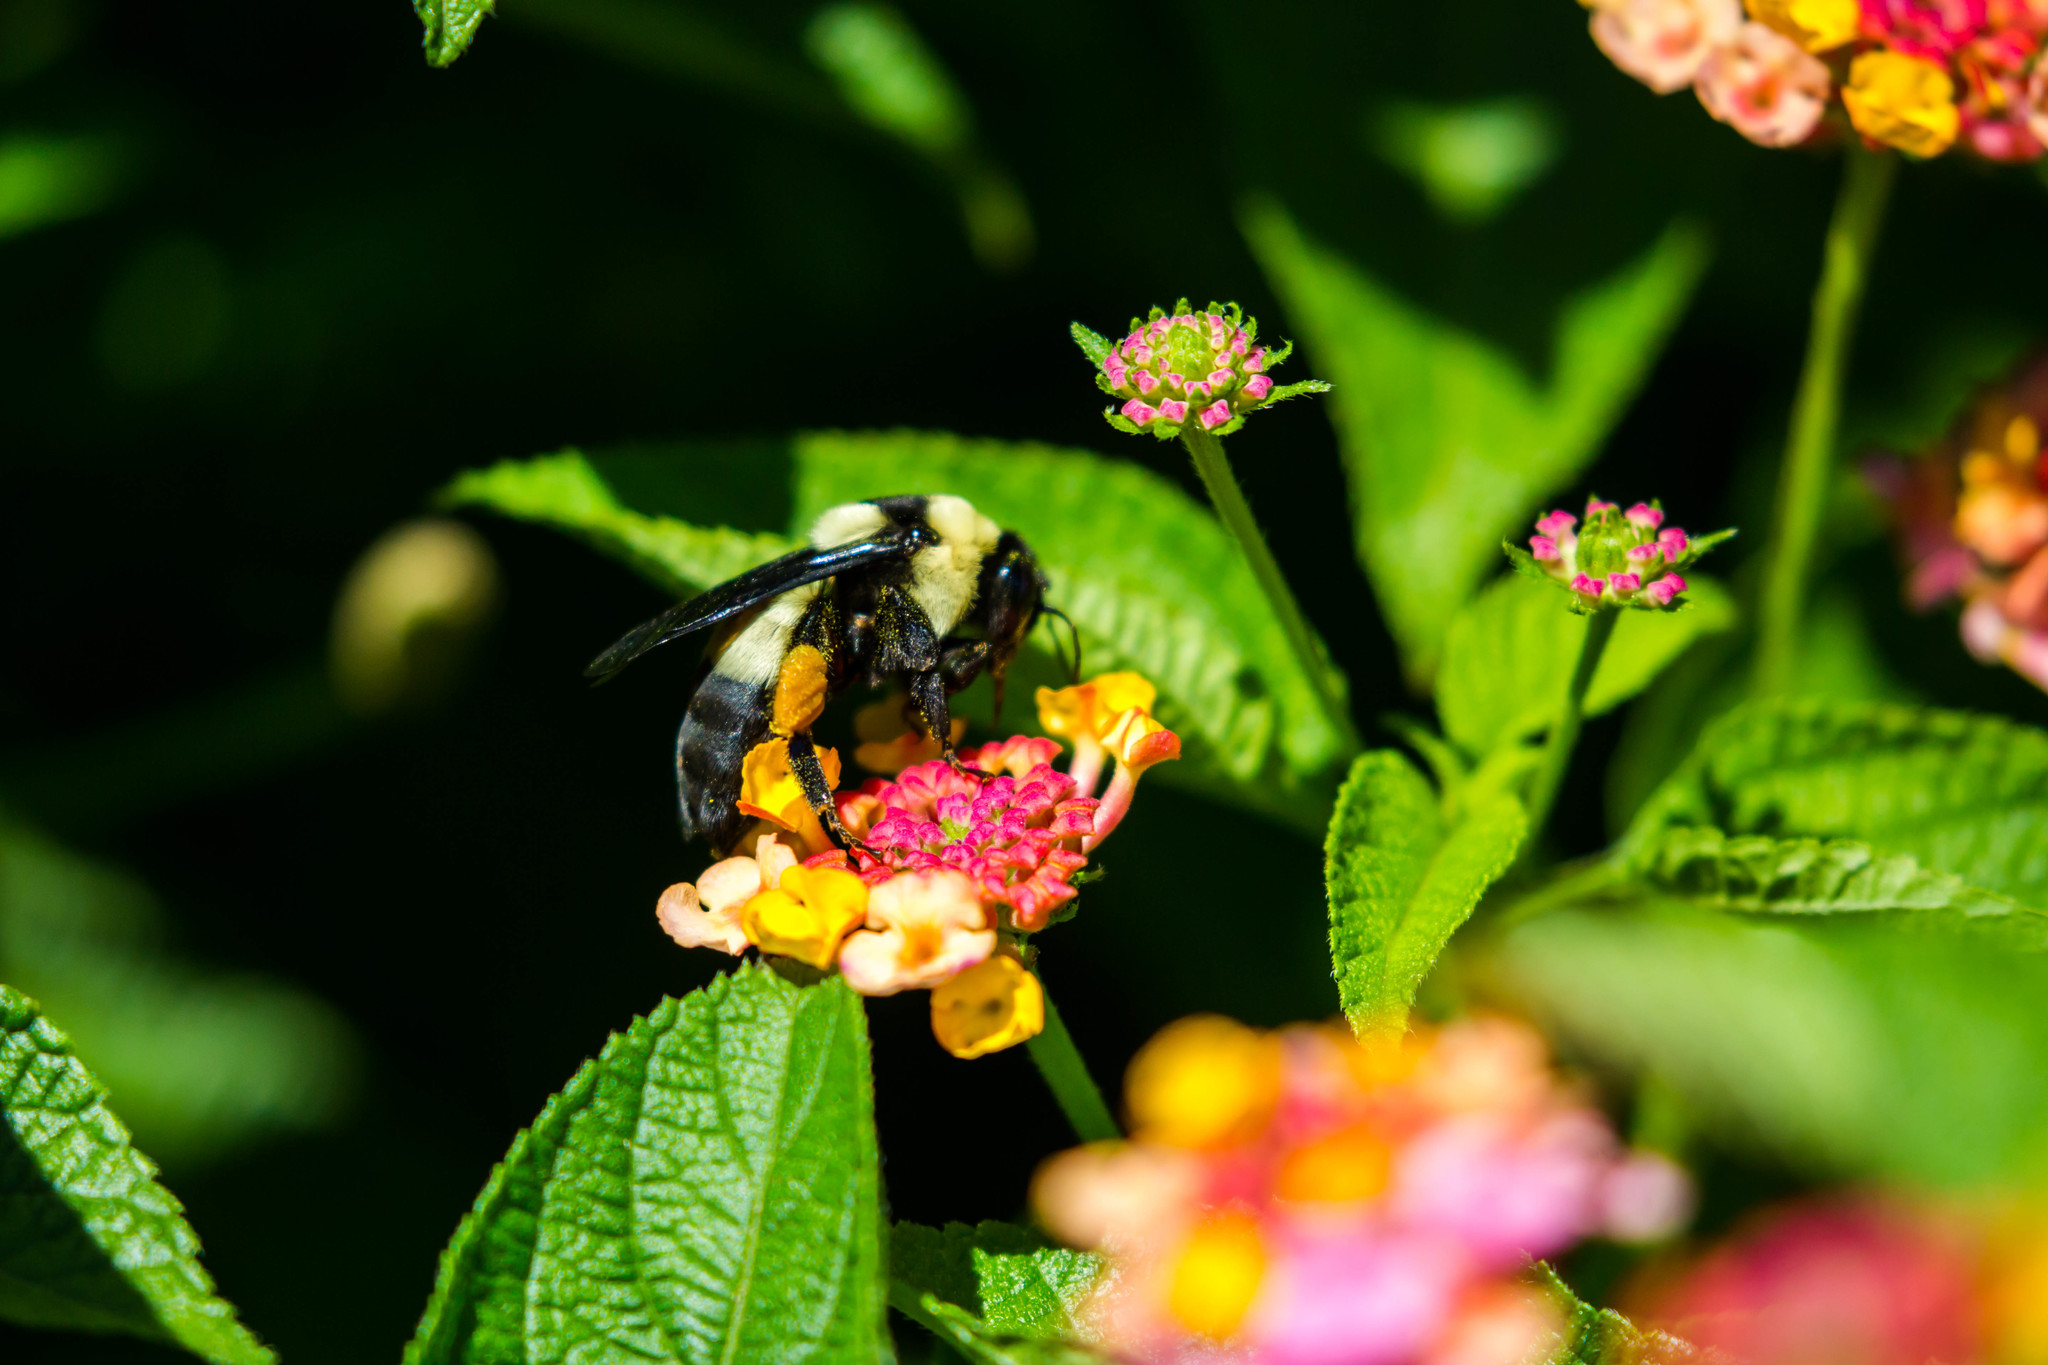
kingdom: Animalia
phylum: Arthropoda
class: Insecta
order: Hymenoptera
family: Apidae
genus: Bombus
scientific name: Bombus fraternus
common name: Southern plains bumble bee
